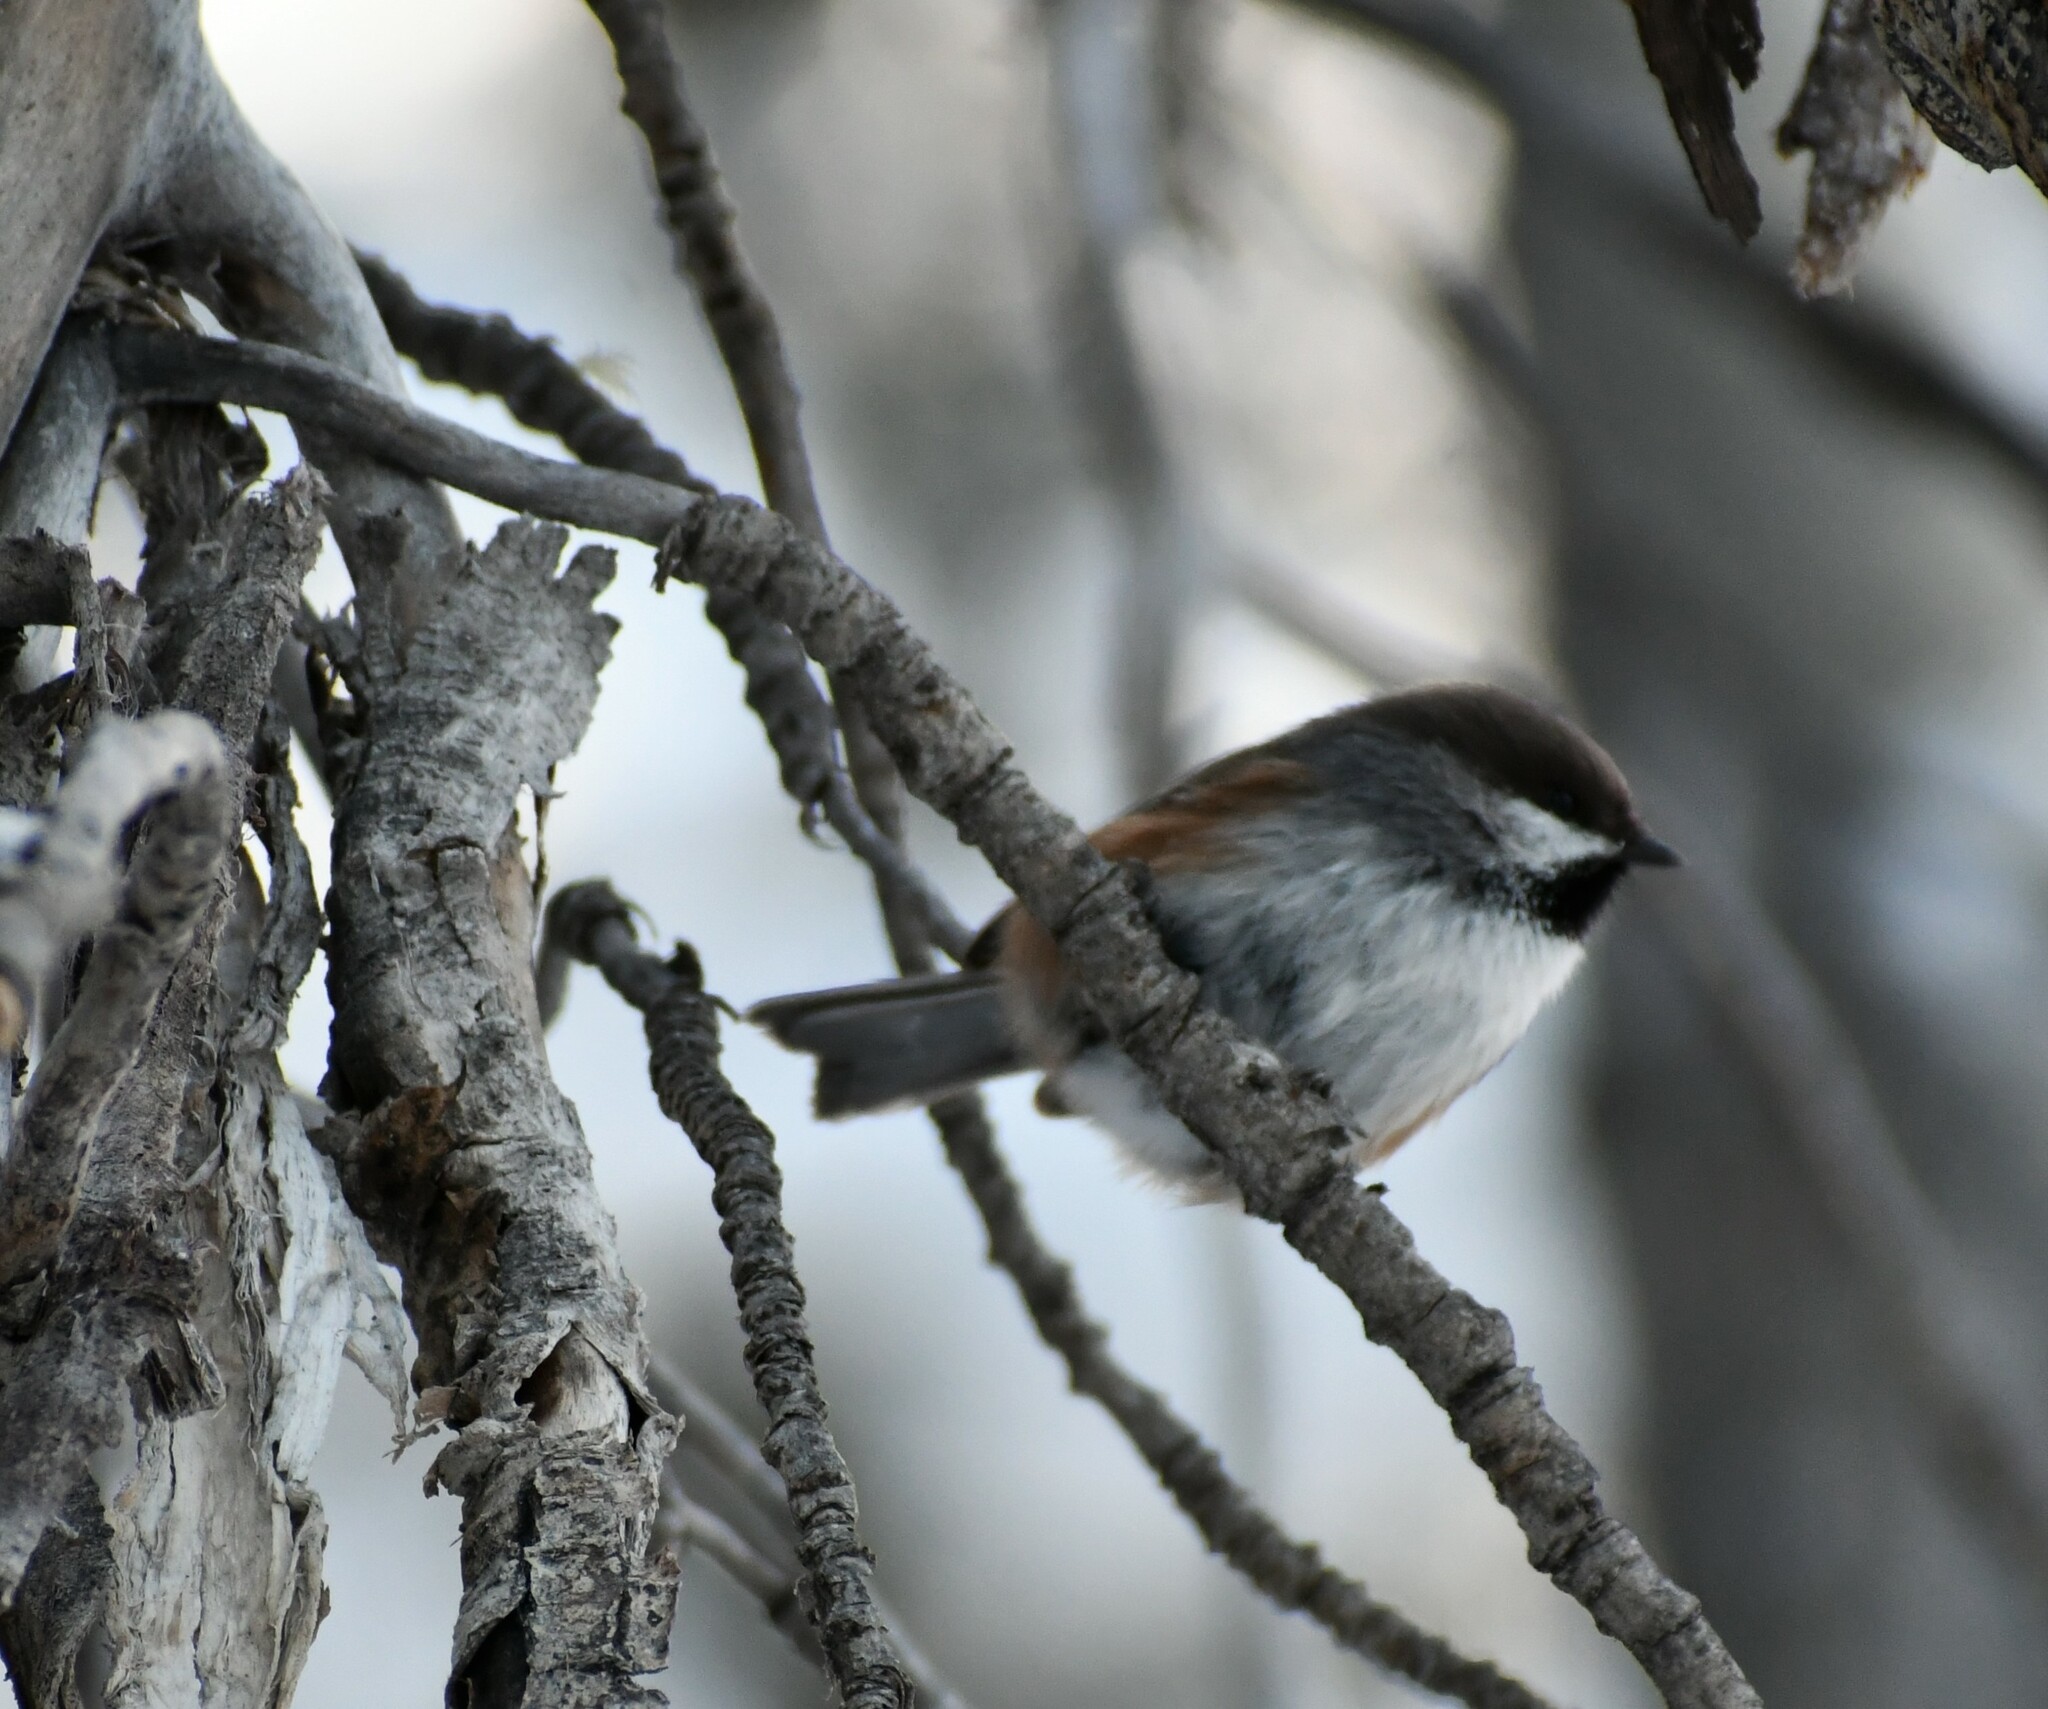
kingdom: Animalia
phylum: Chordata
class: Aves
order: Passeriformes
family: Paridae
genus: Poecile
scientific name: Poecile hudsonicus
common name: Boreal chickadee
